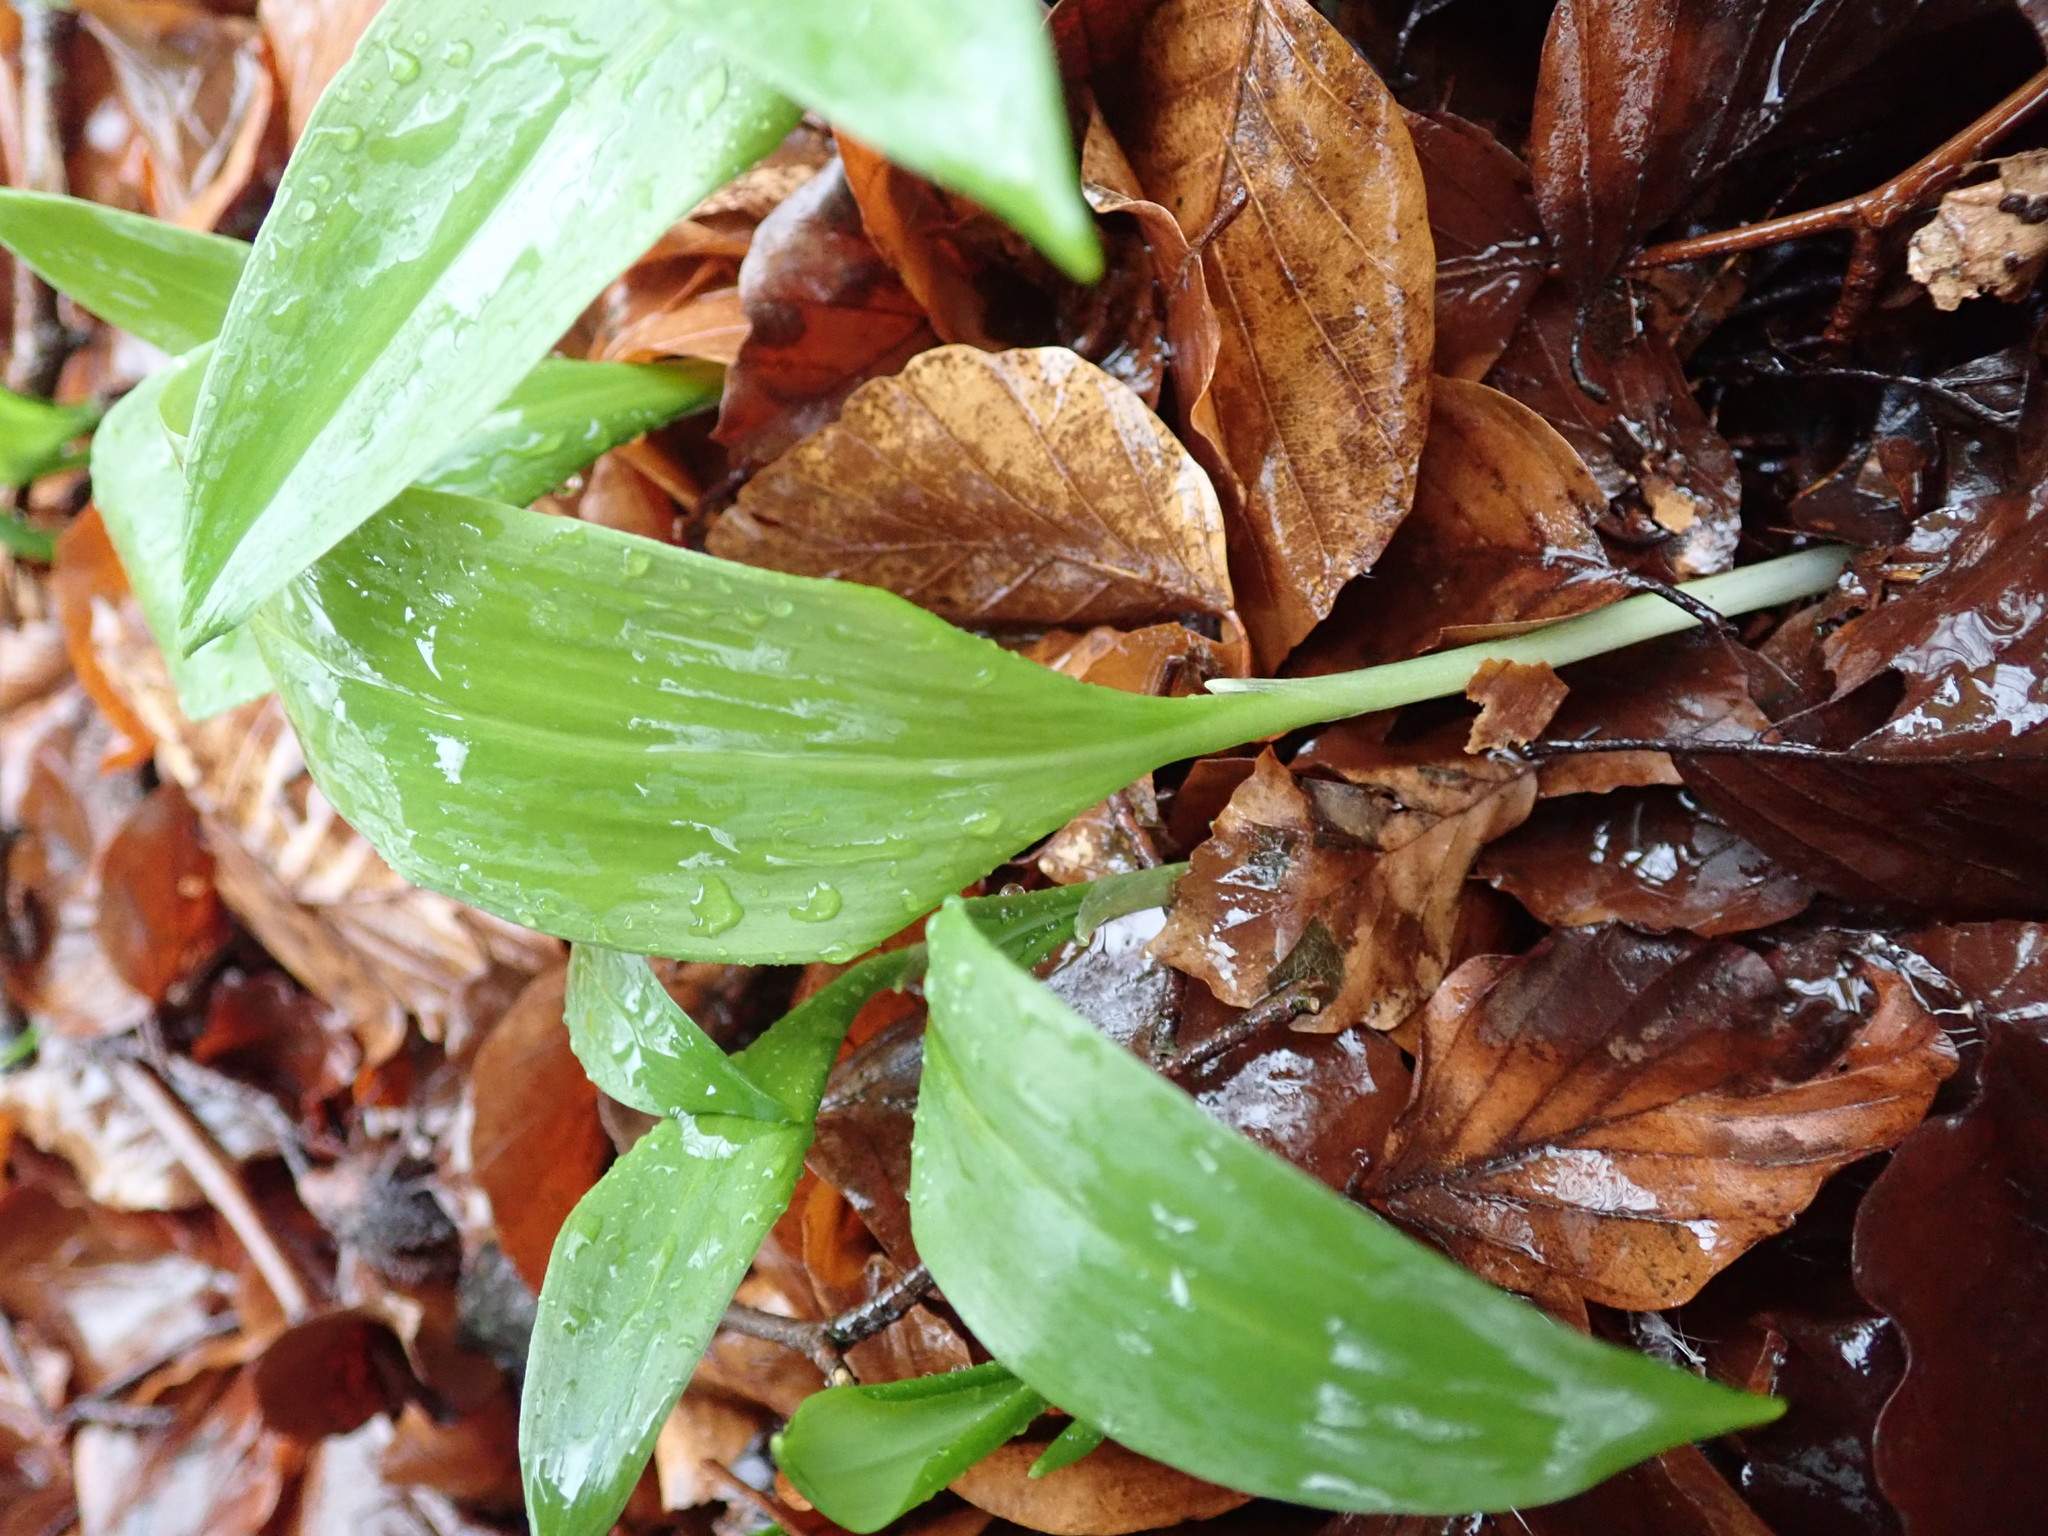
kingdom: Plantae
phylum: Tracheophyta
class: Liliopsida
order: Asparagales
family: Amaryllidaceae
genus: Allium
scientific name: Allium ursinum
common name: Ramsons
